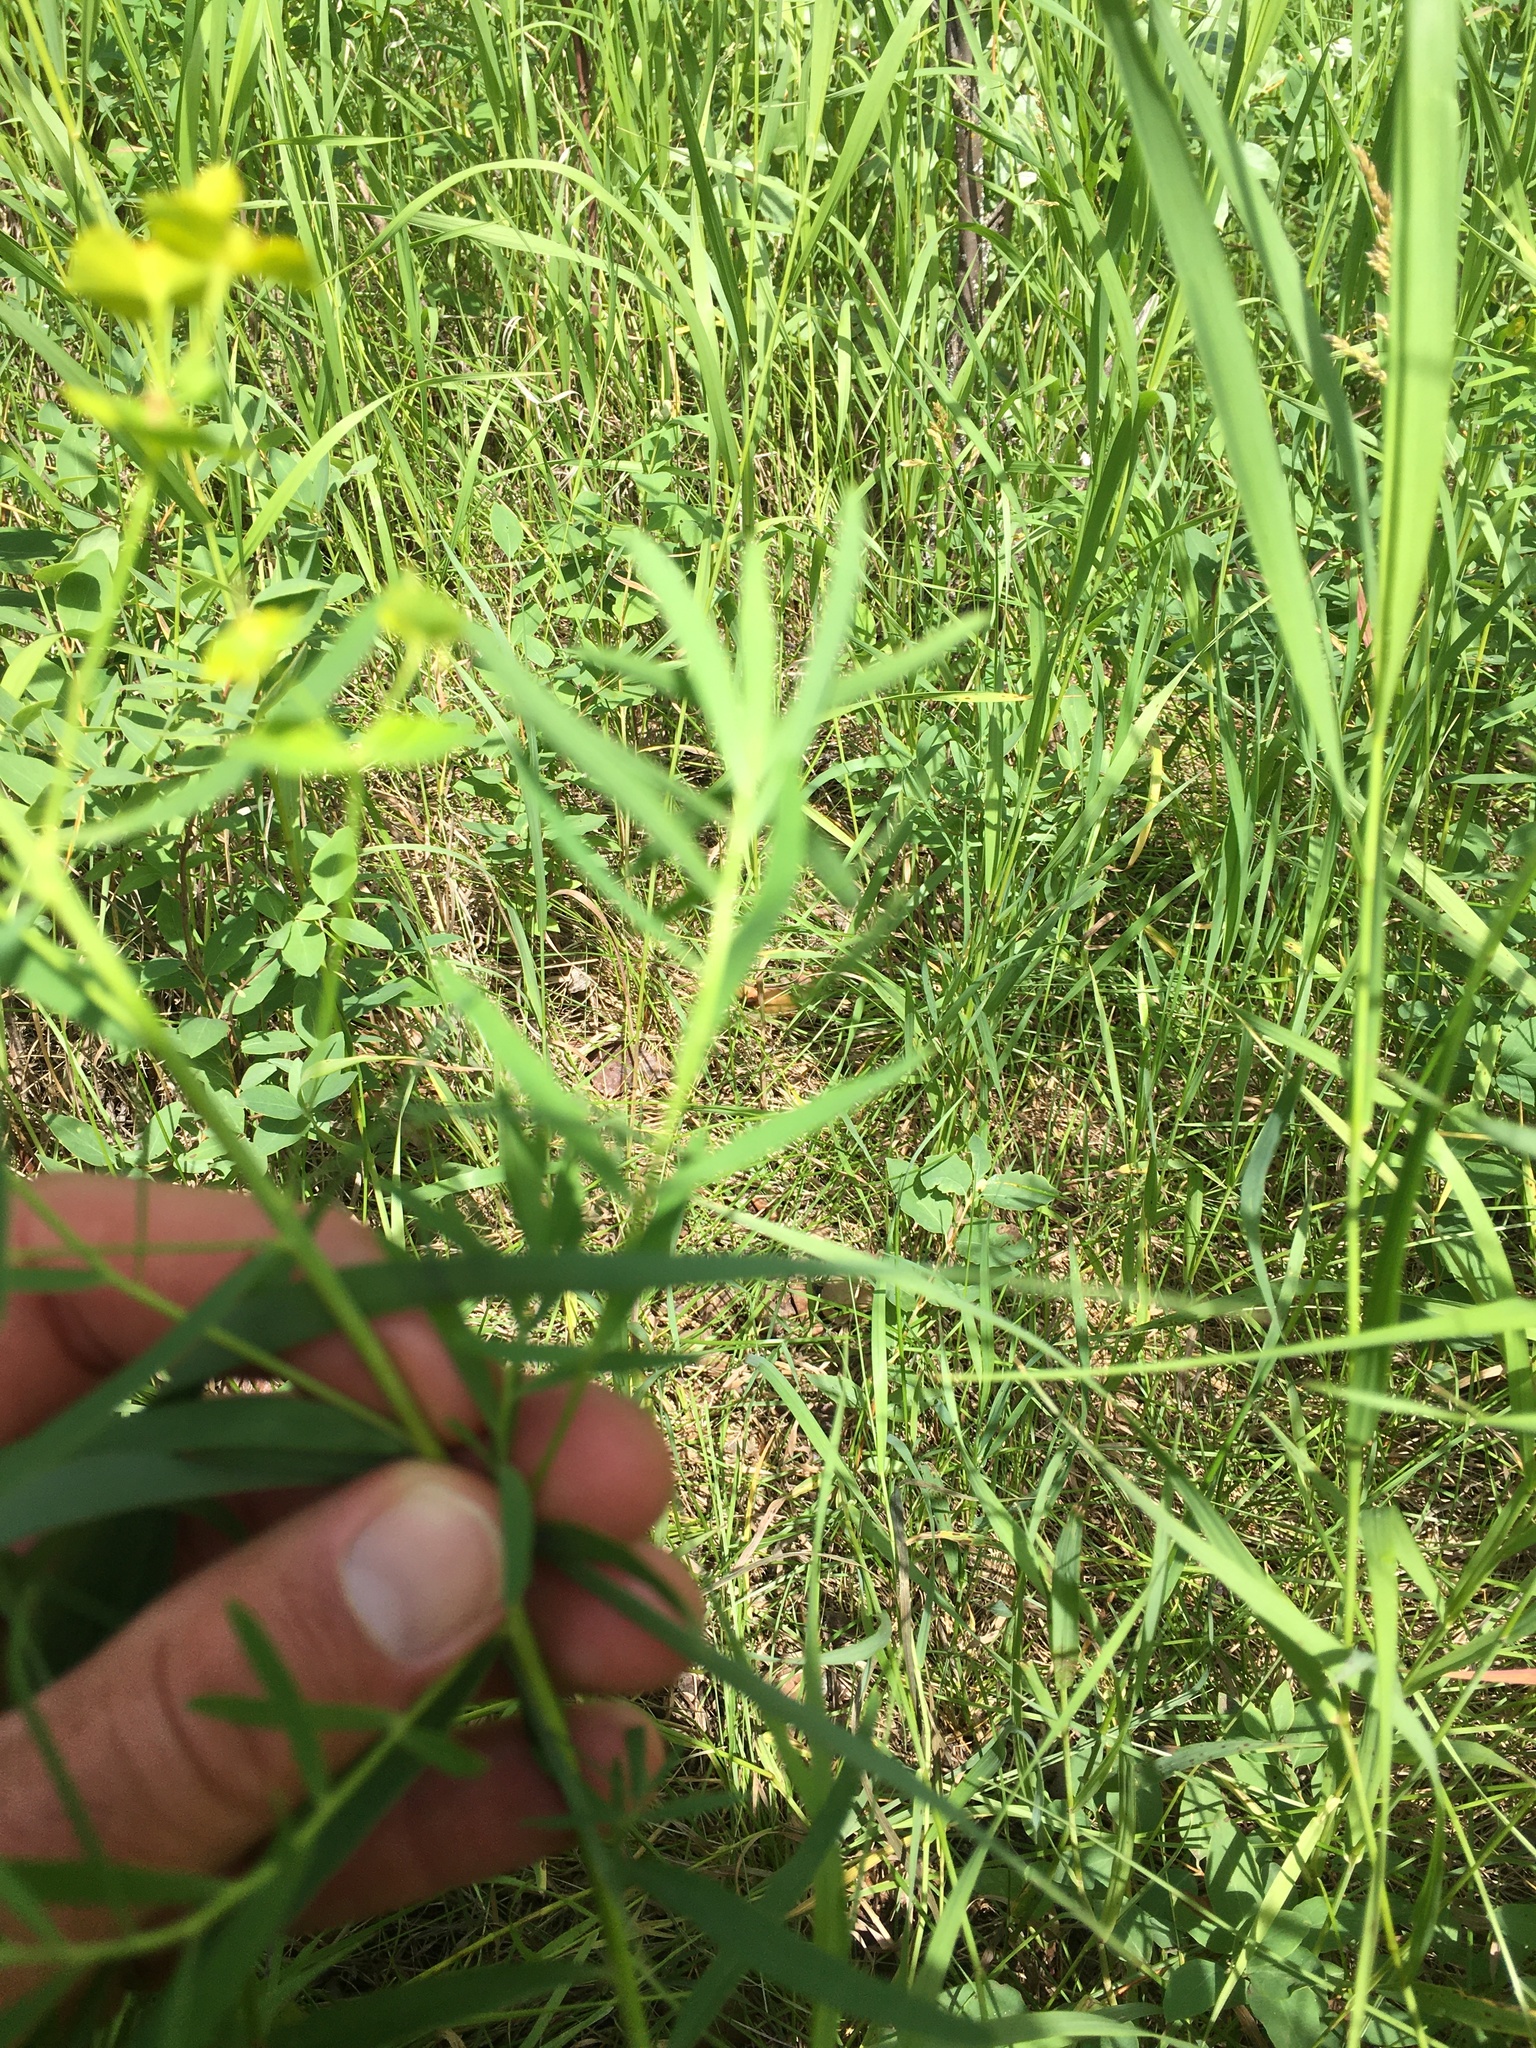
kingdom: Plantae
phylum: Tracheophyta
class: Magnoliopsida
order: Malpighiales
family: Euphorbiaceae
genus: Euphorbia
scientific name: Euphorbia virgata
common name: Leafy spurge
